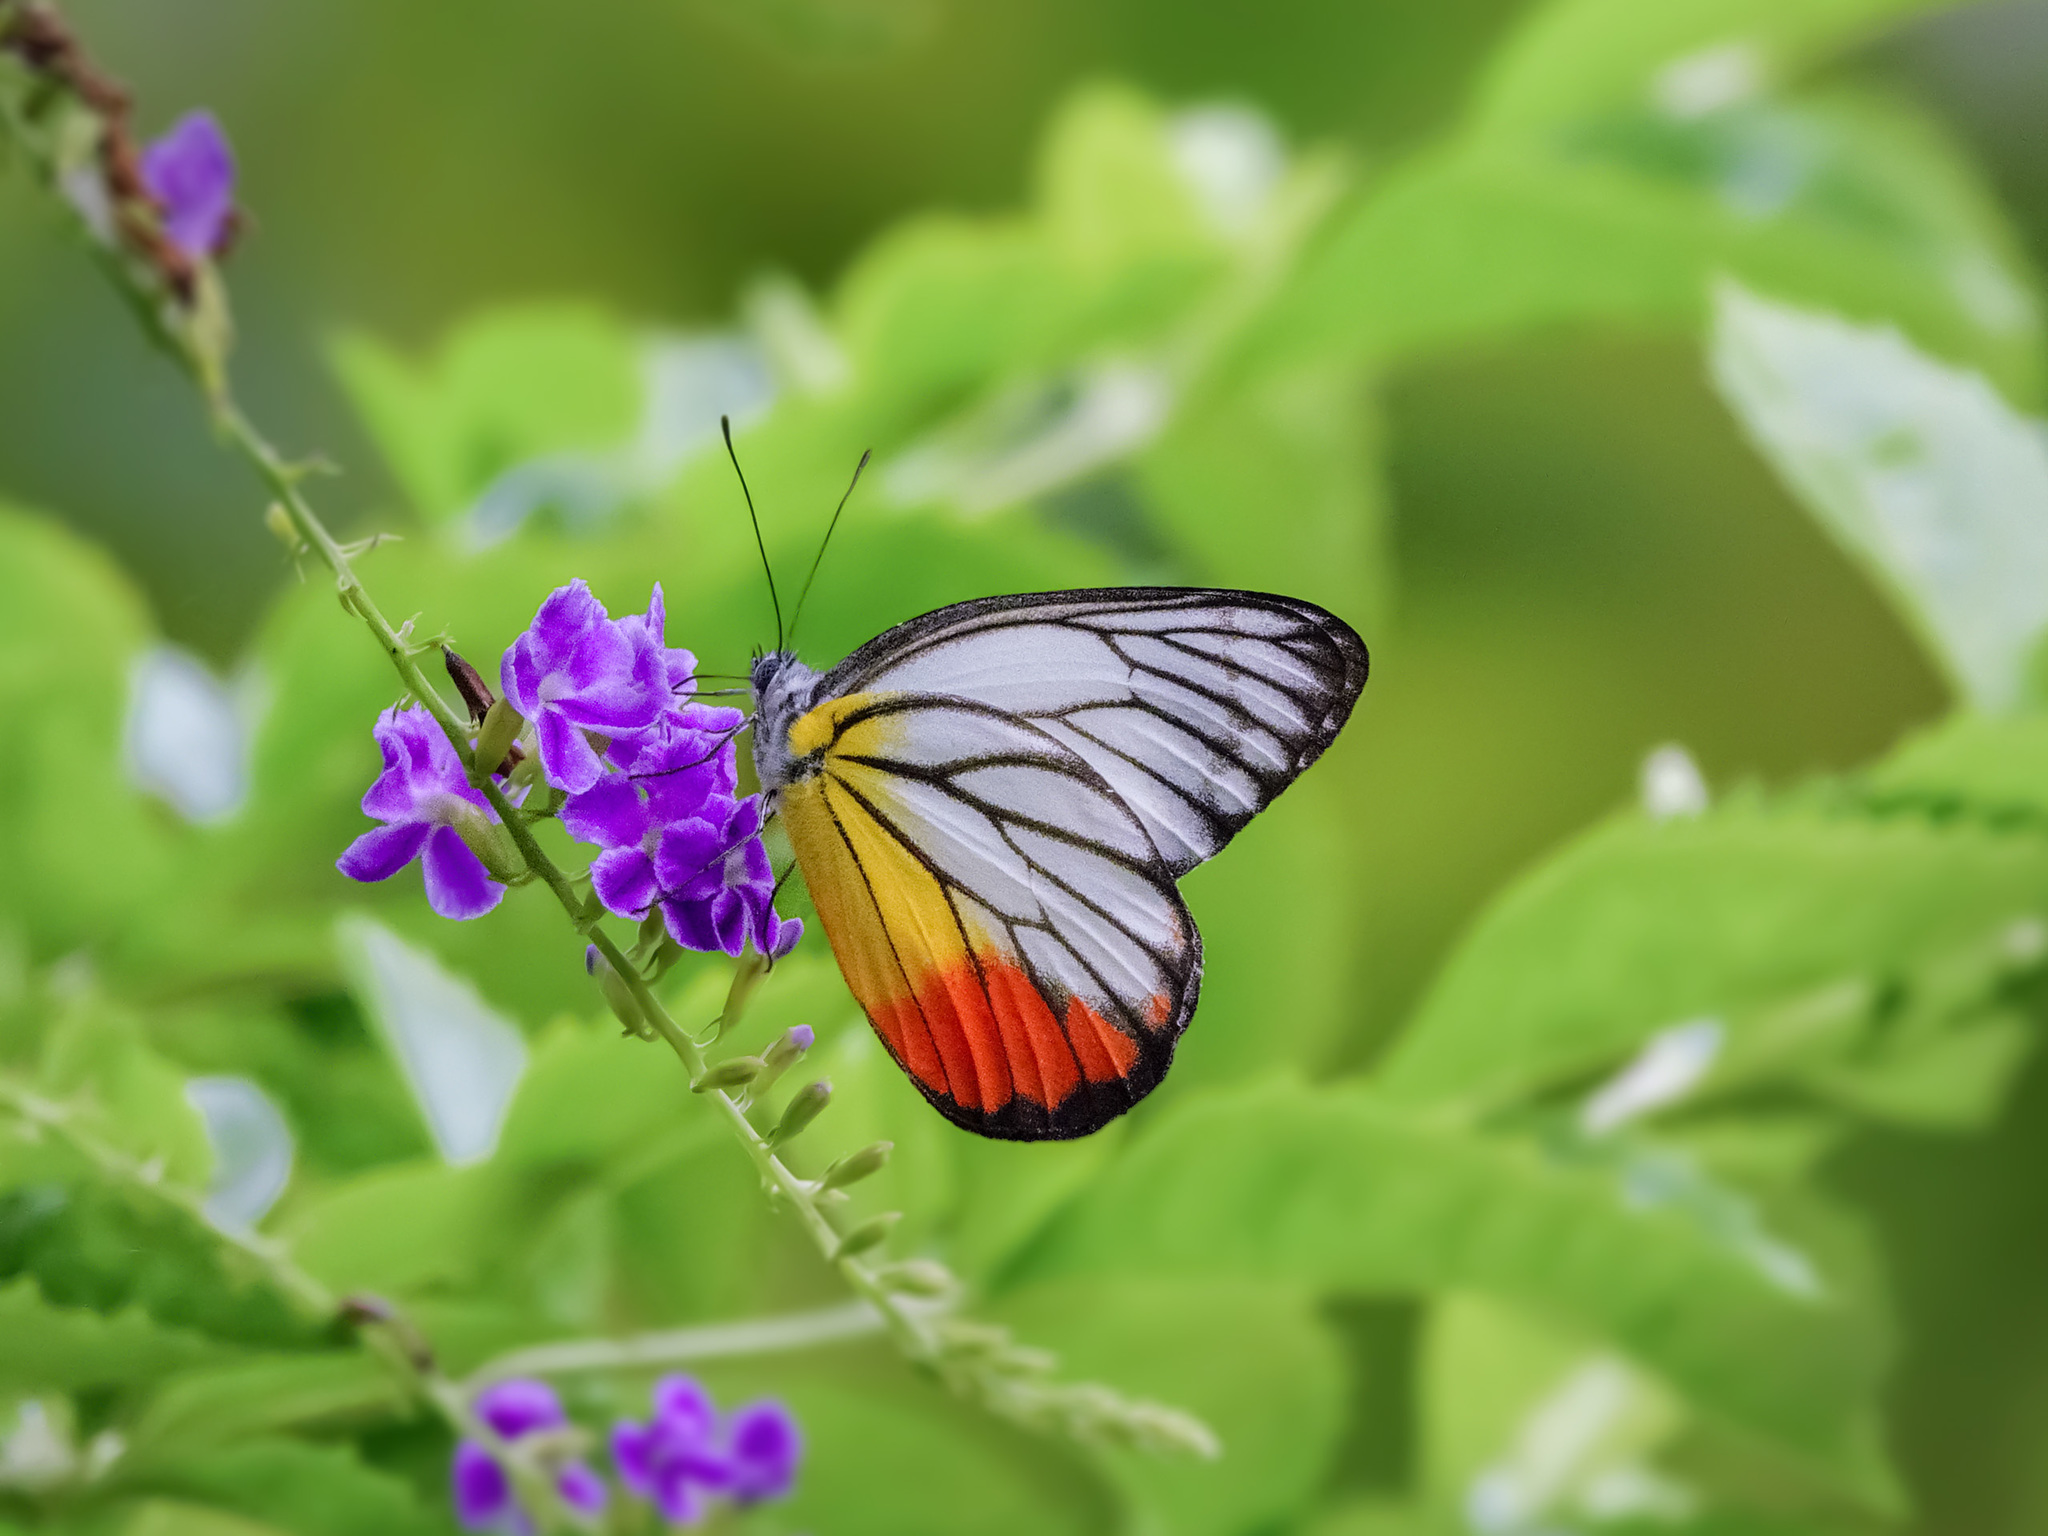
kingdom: Animalia
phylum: Arthropoda
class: Insecta
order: Lepidoptera
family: Pieridae
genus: Delias
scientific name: Delias hyparete
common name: Painted jezebel
